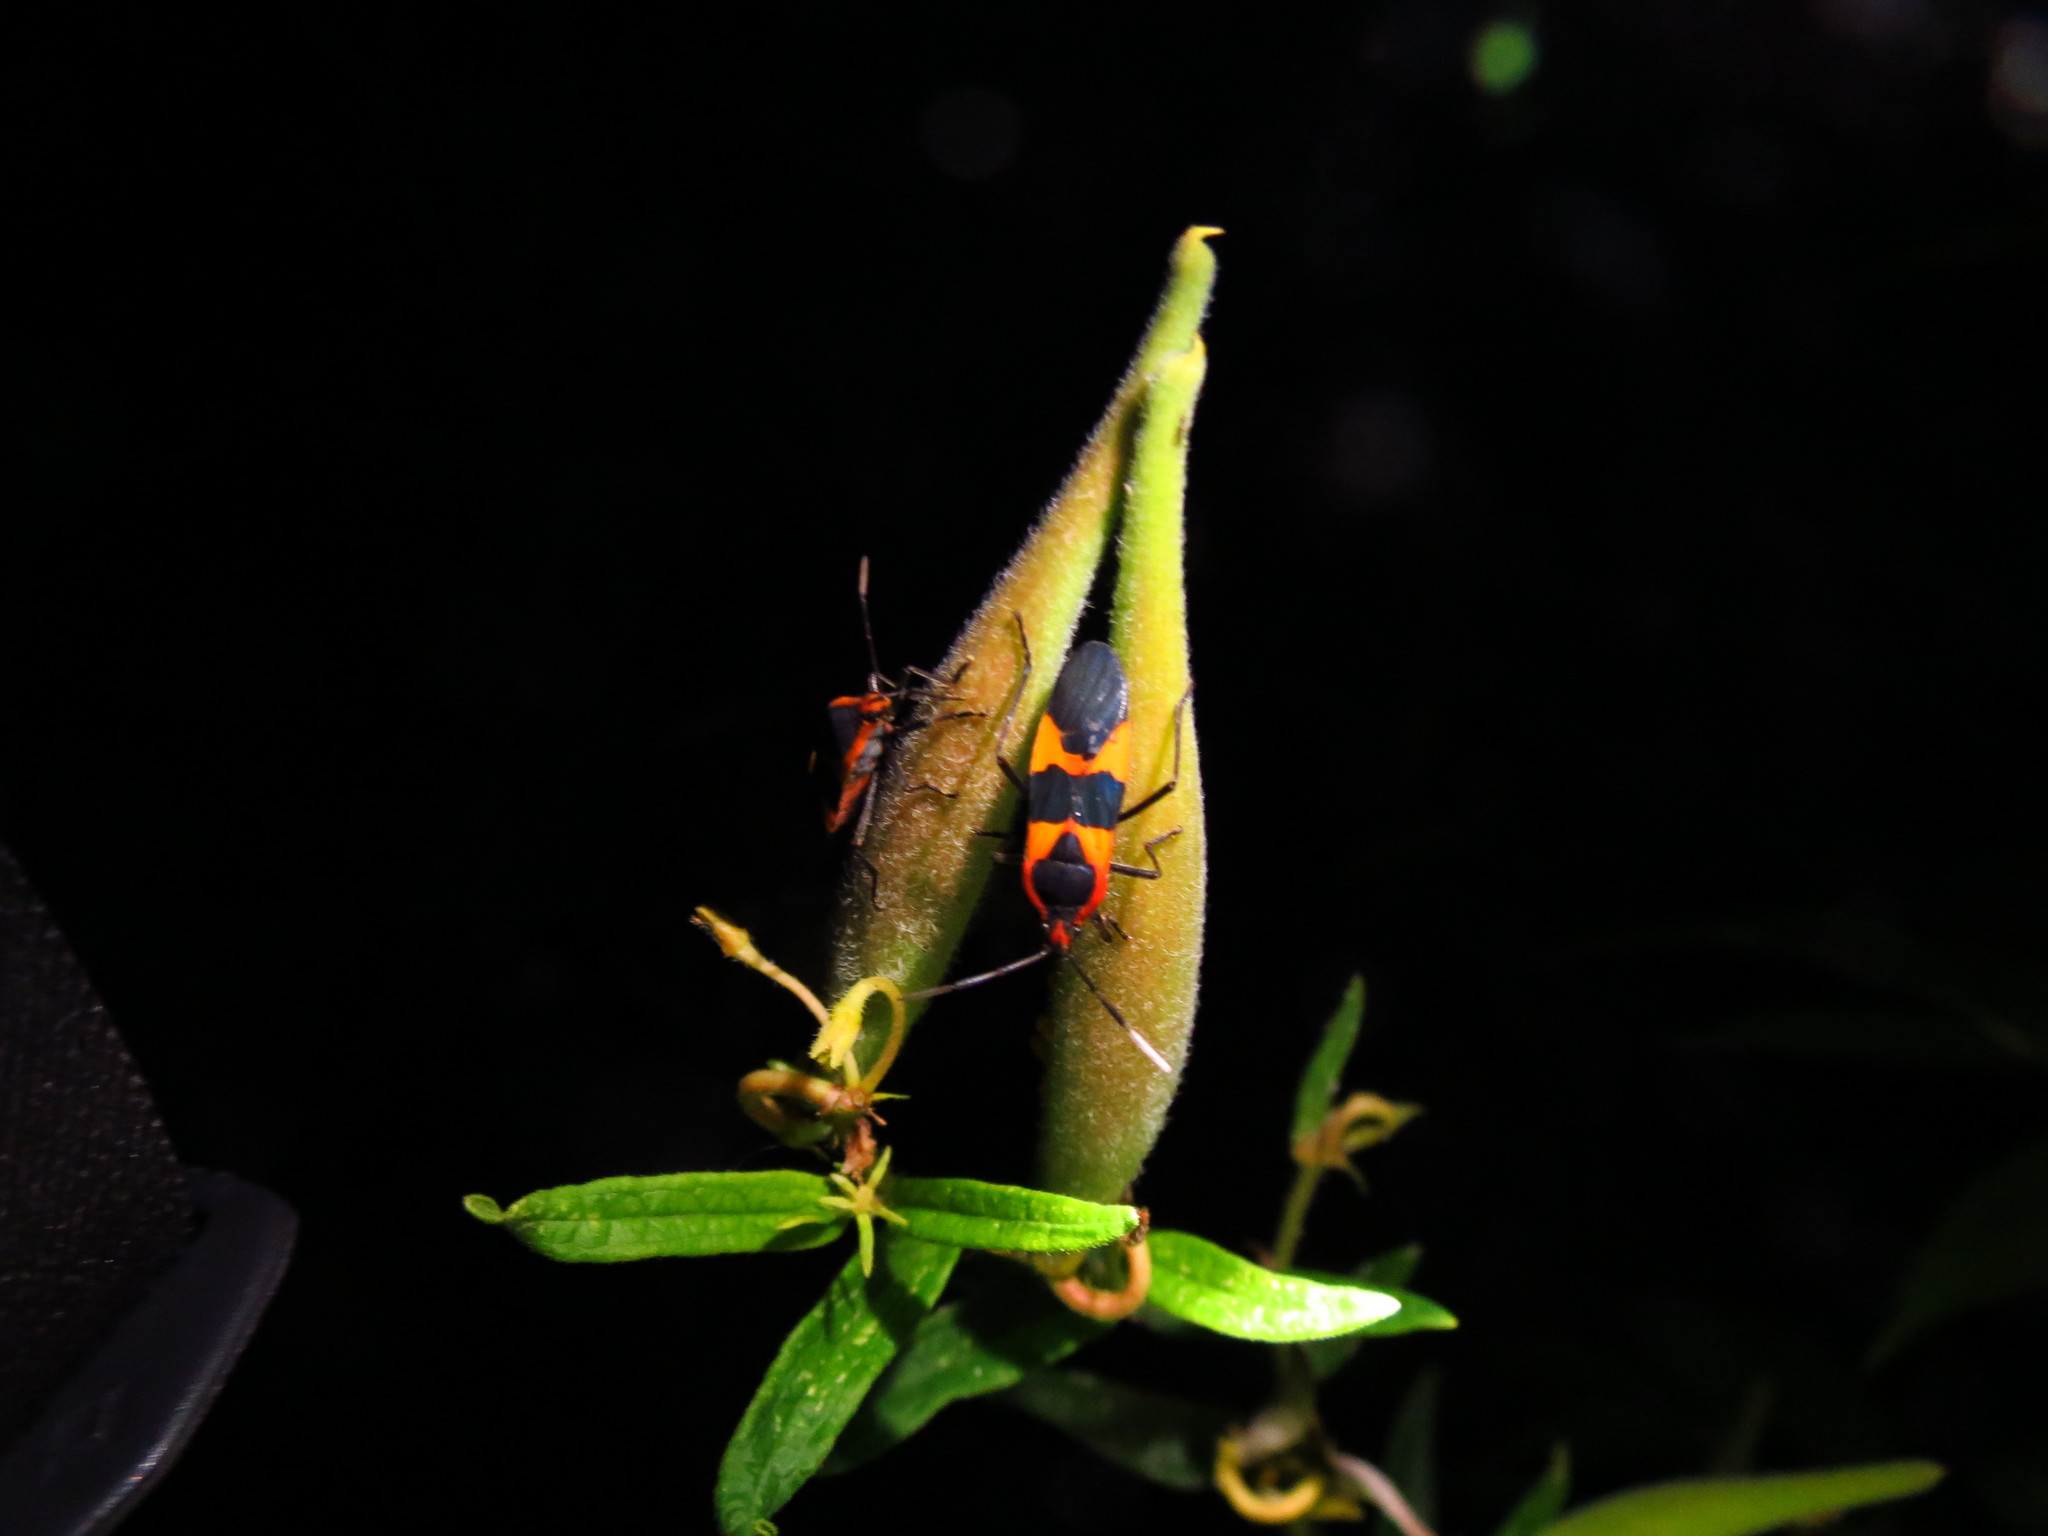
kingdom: Animalia
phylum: Arthropoda
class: Insecta
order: Hemiptera
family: Lygaeidae
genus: Oncopeltus
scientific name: Oncopeltus fasciatus
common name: Large milkweed bug
